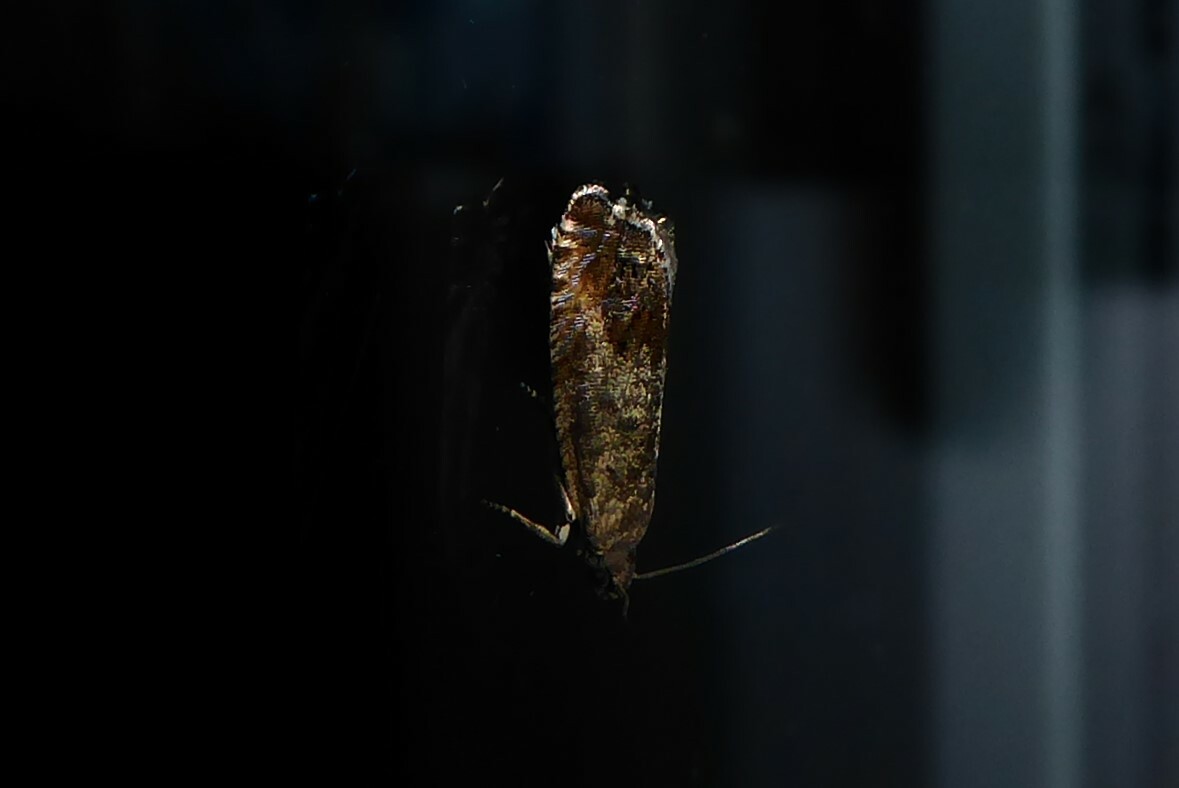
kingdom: Animalia
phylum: Arthropoda
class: Insecta
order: Lepidoptera
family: Tortricidae
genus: Cydia
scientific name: Cydia succedana
